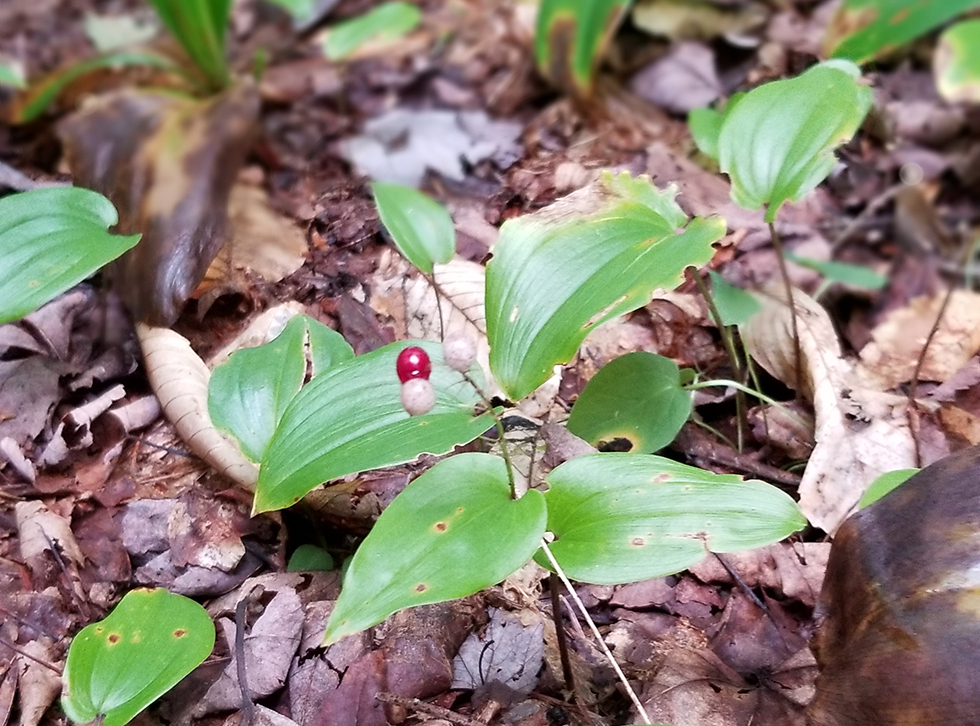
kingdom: Plantae
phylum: Tracheophyta
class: Liliopsida
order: Asparagales
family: Asparagaceae
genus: Maianthemum
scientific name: Maianthemum canadense
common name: False lily-of-the-valley
